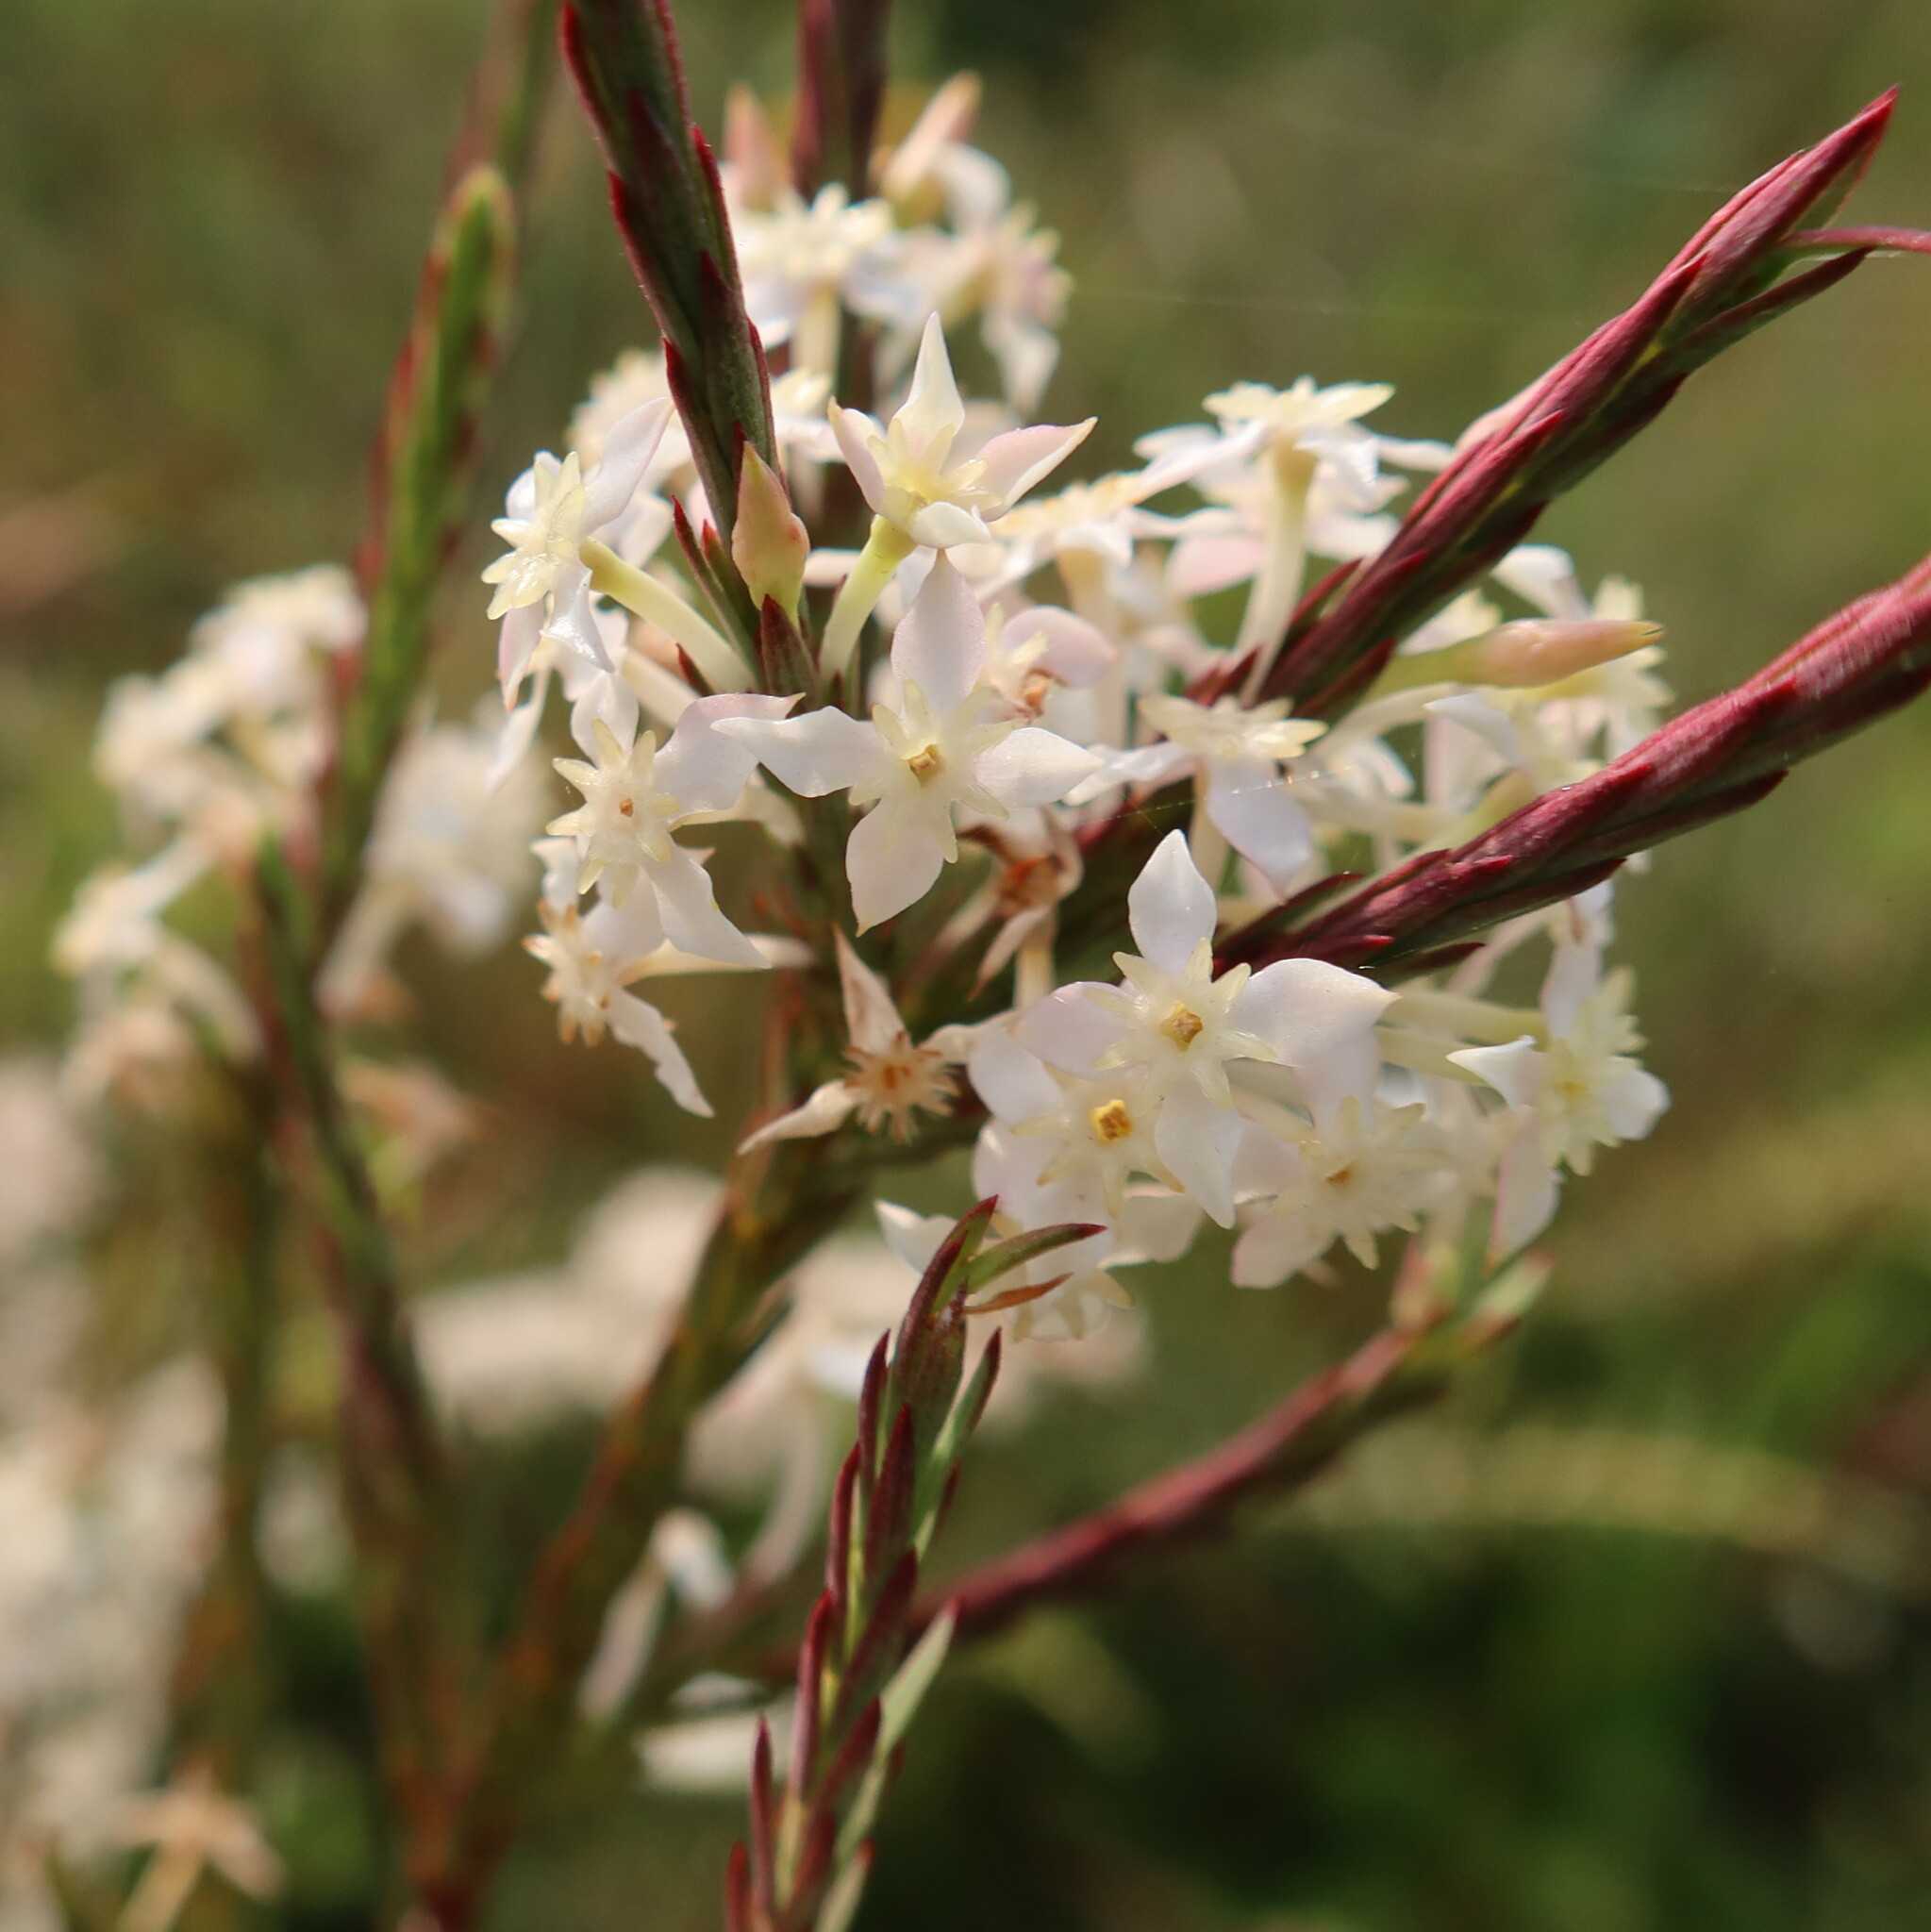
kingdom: Plantae
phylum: Tracheophyta
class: Magnoliopsida
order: Malvales
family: Thymelaeaceae
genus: Struthiola
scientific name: Struthiola dodecandra
